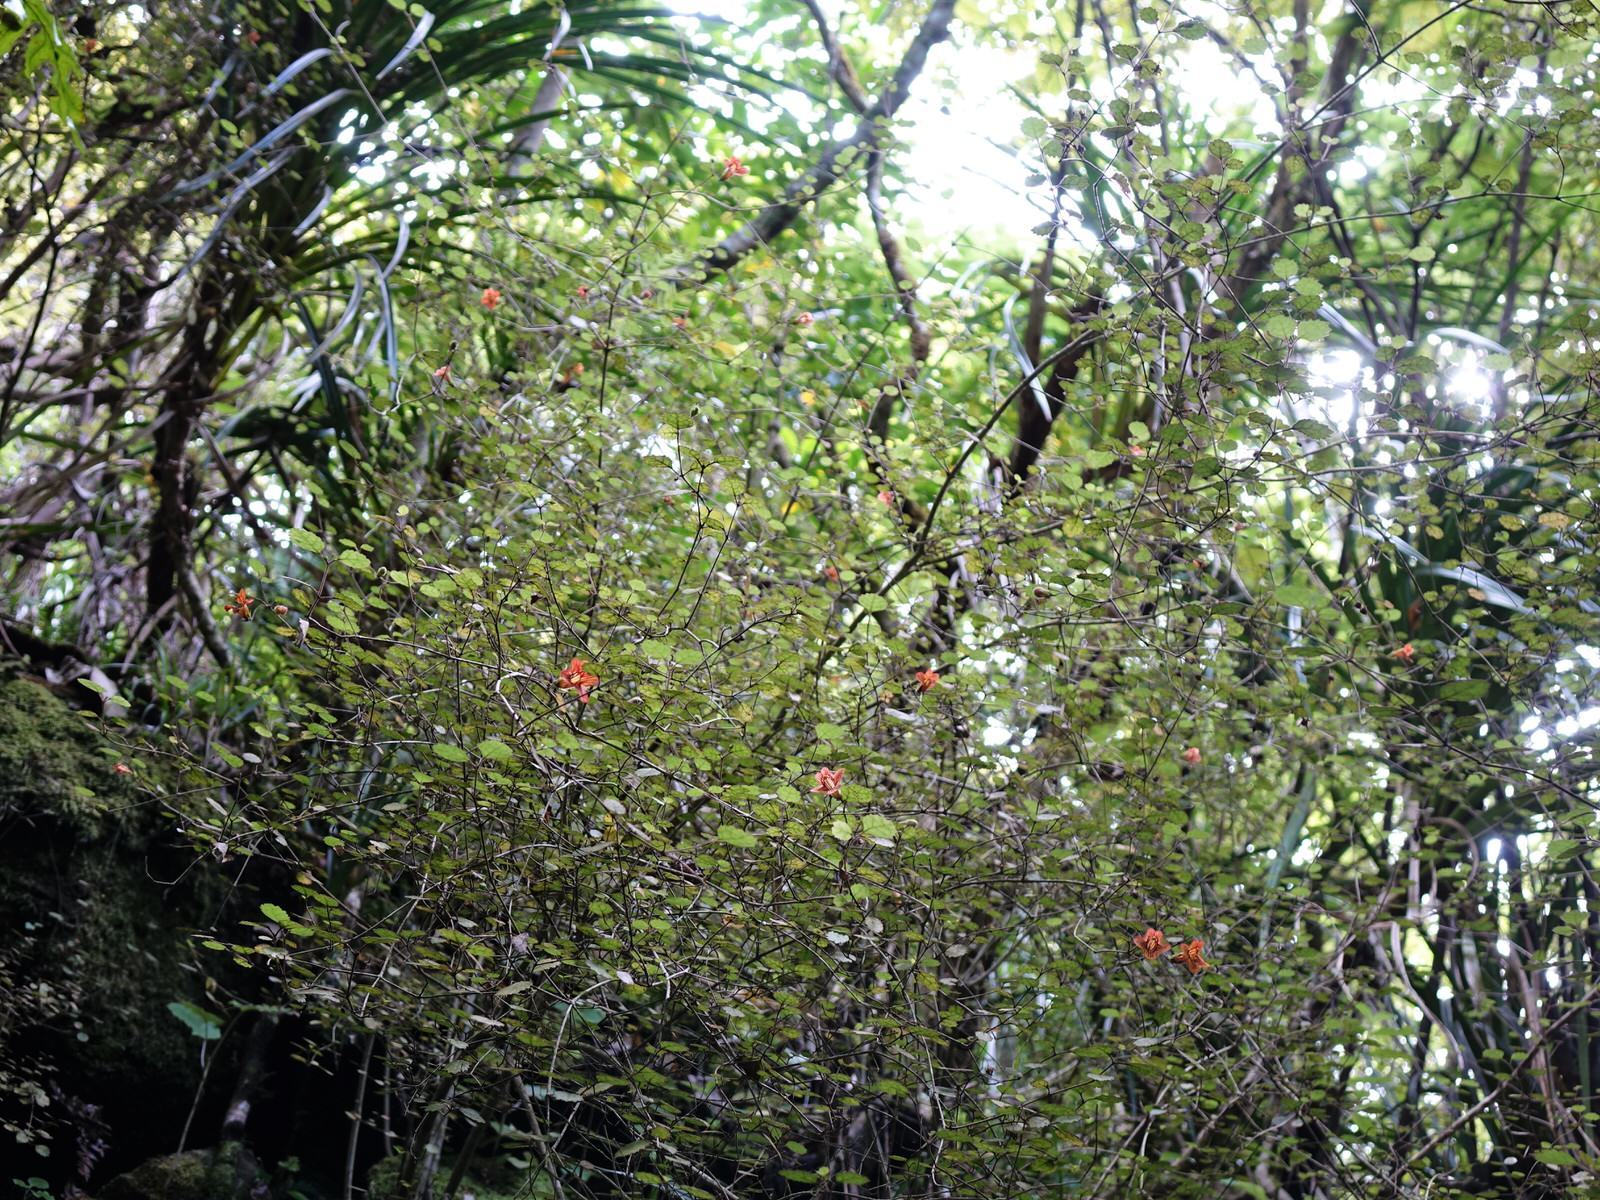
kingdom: Plantae
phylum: Tracheophyta
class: Magnoliopsida
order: Lamiales
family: Gesneriaceae
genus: Rhabdothamnus
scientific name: Rhabdothamnus solandri
